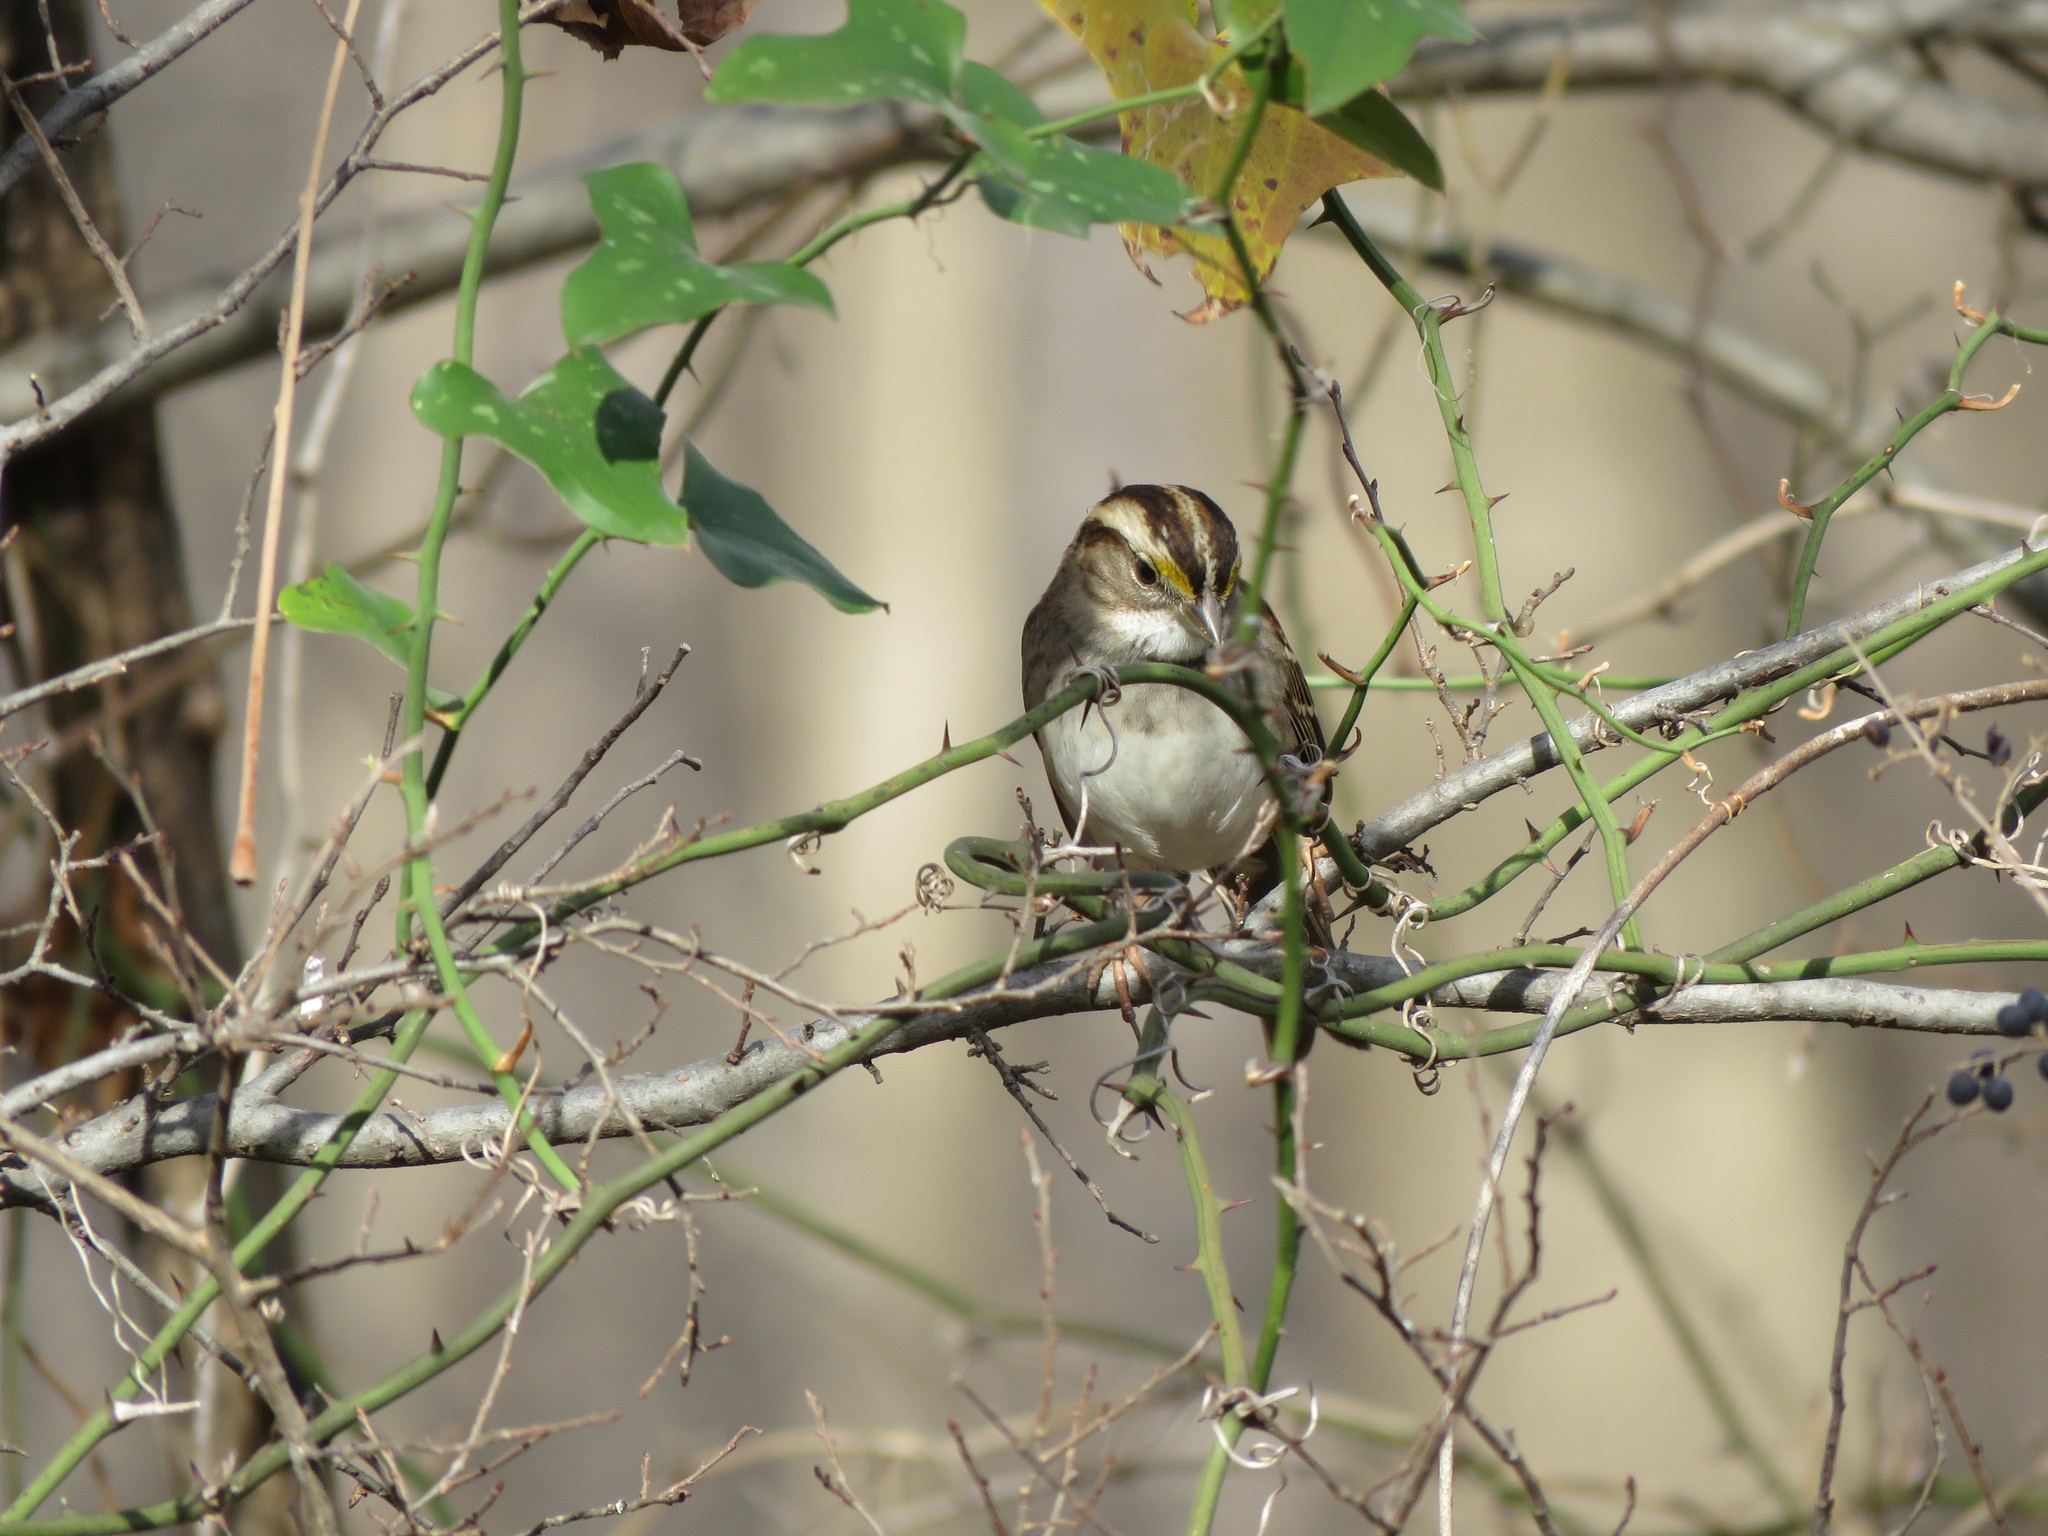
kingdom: Animalia
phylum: Chordata
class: Aves
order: Passeriformes
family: Passerellidae
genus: Zonotrichia
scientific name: Zonotrichia albicollis
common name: White-throated sparrow
